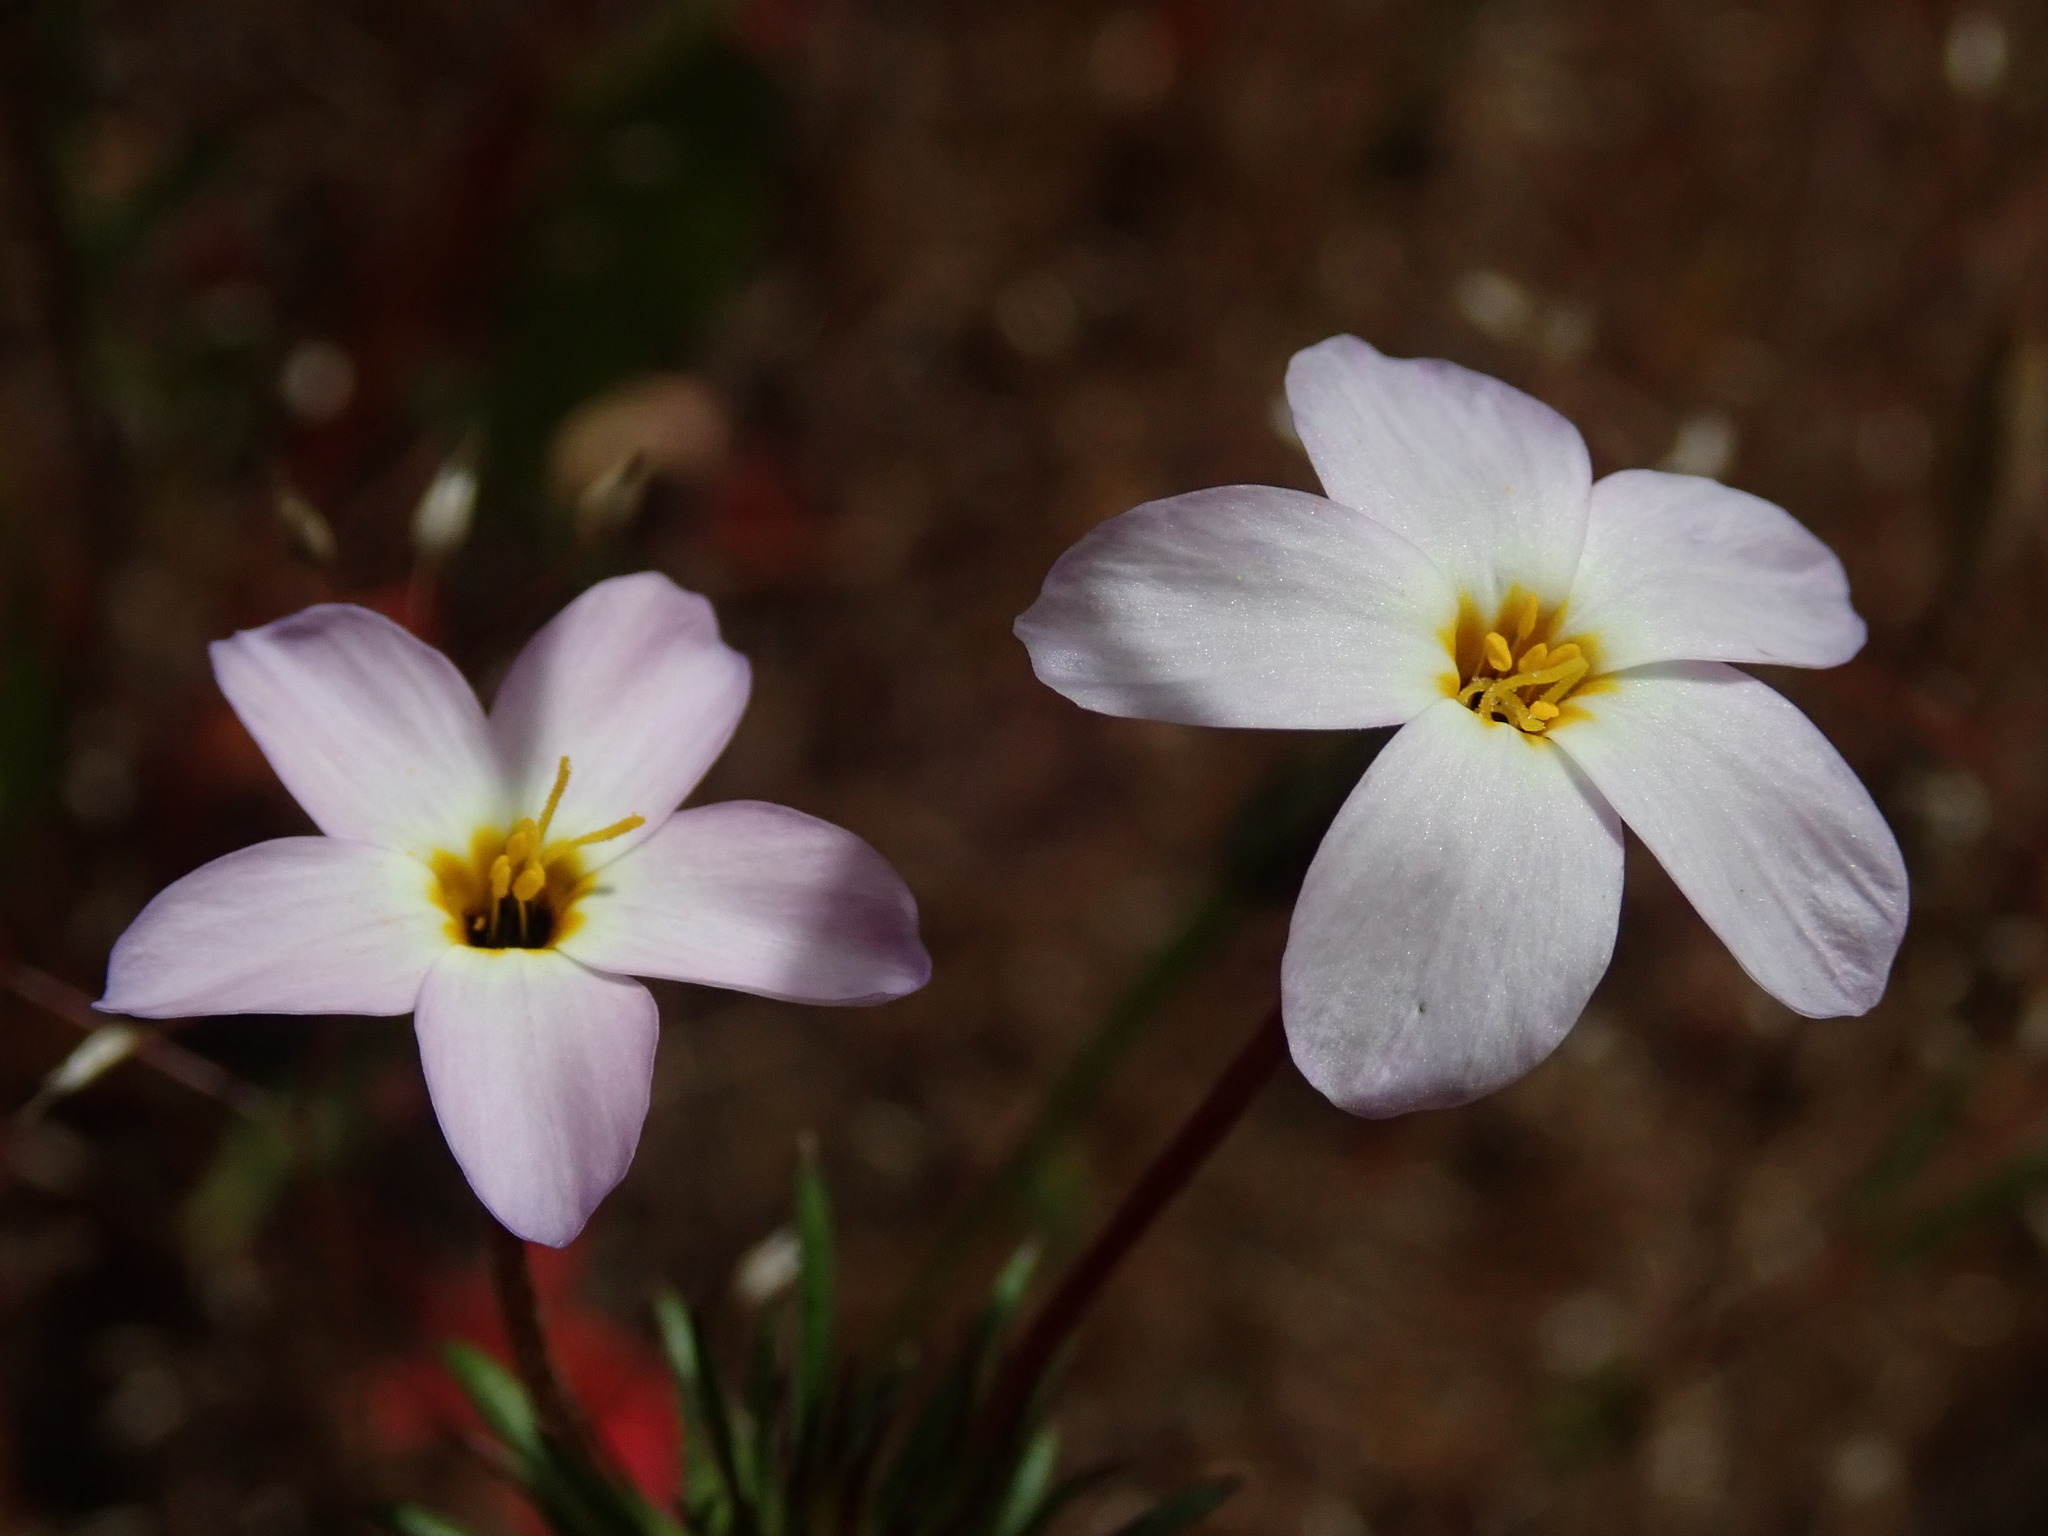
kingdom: Plantae
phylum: Tracheophyta
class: Magnoliopsida
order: Ericales
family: Polemoniaceae
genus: Leptosiphon
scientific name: Leptosiphon androsaceus
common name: False babystars
